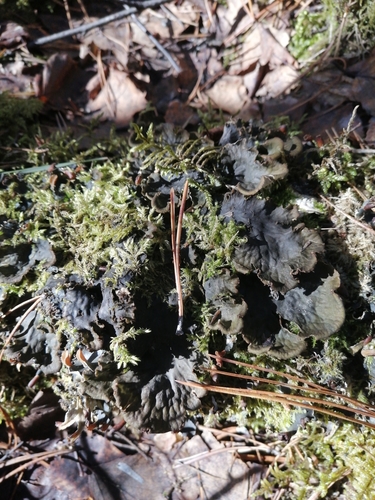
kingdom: Fungi
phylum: Ascomycota
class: Lecanoromycetes
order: Peltigerales
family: Peltigeraceae
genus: Peltigera
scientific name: Peltigera
